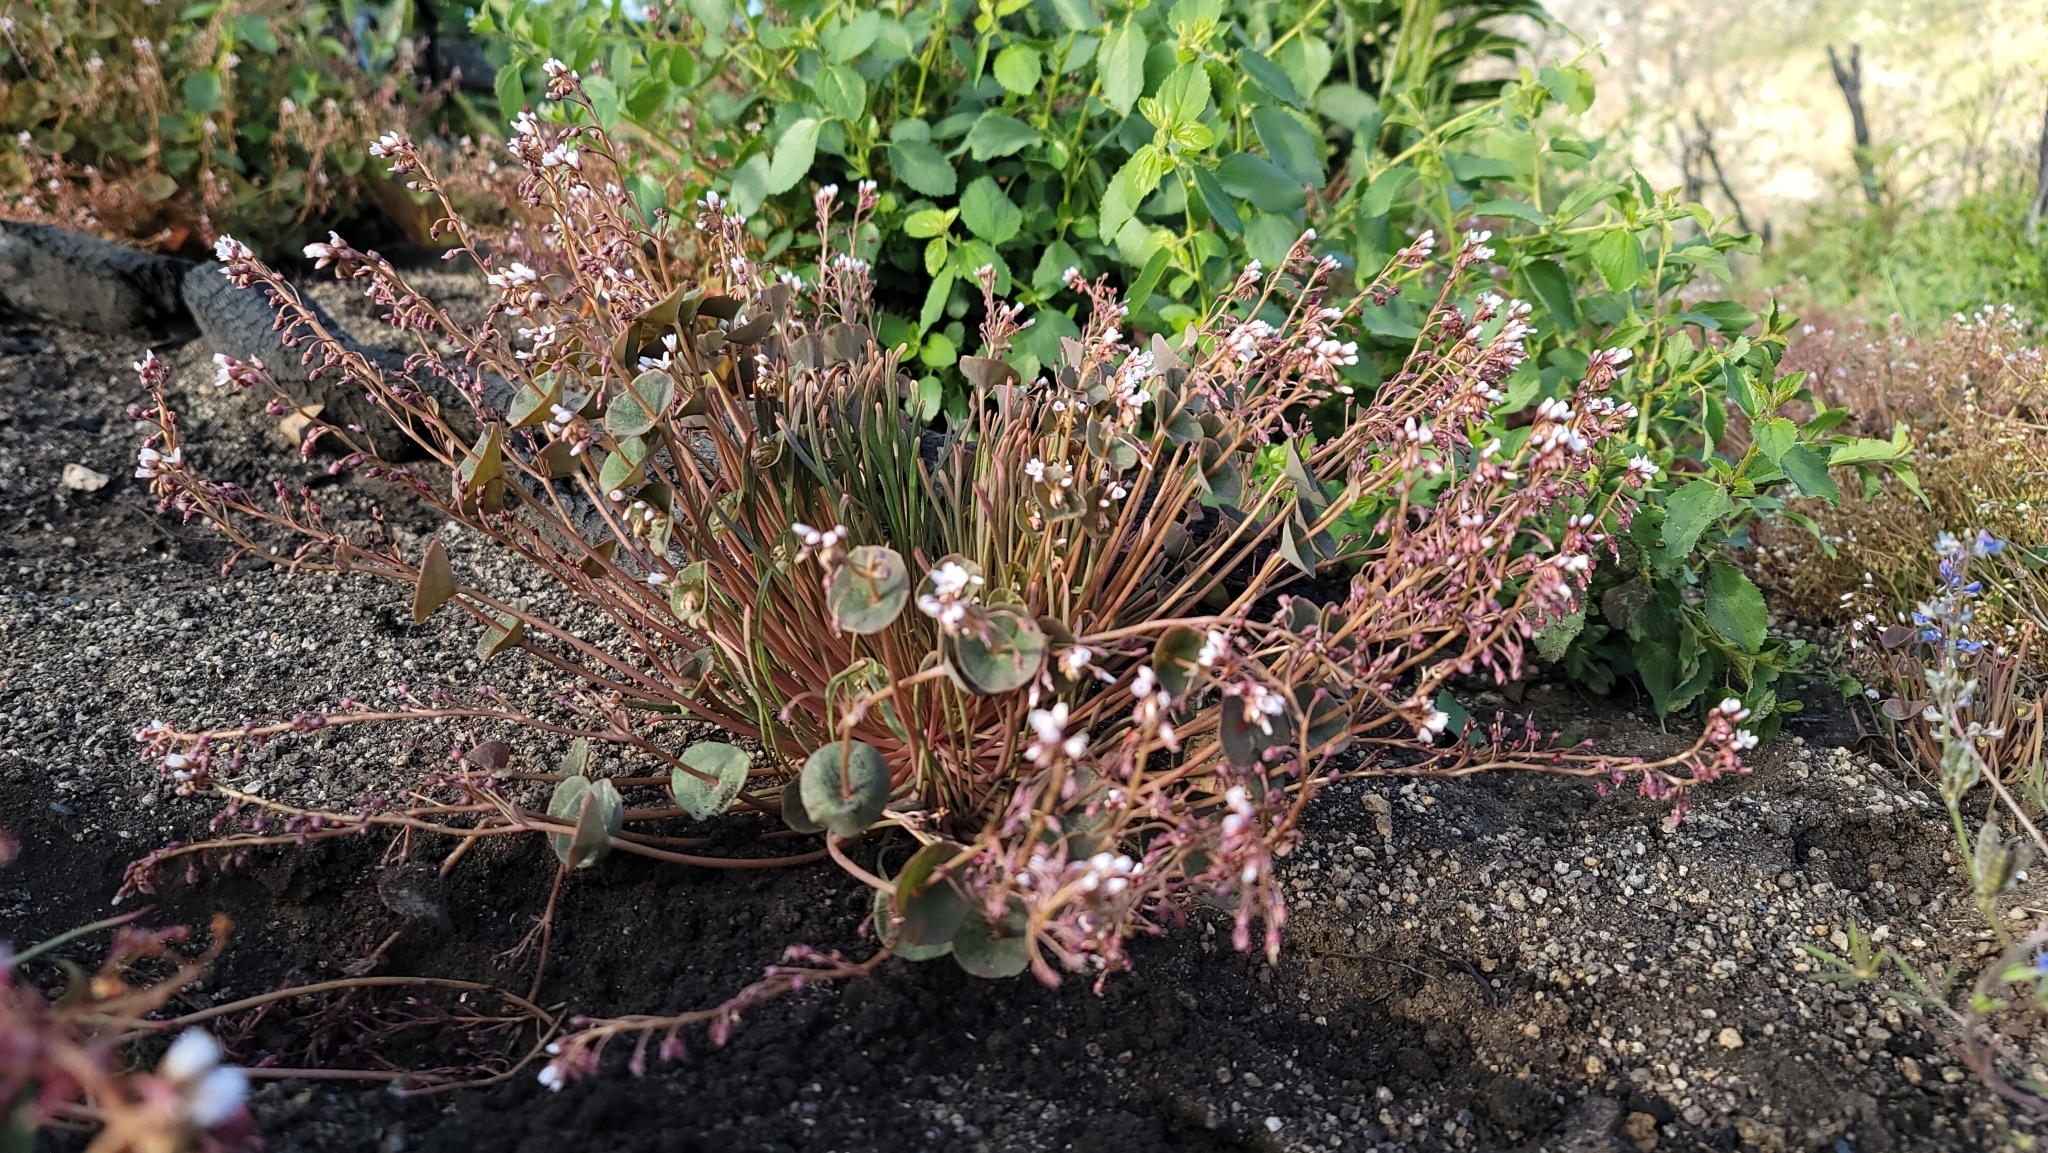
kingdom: Plantae
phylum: Tracheophyta
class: Magnoliopsida
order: Caryophyllales
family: Montiaceae
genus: Claytonia
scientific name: Claytonia parviflora
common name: Indian-lettuce
